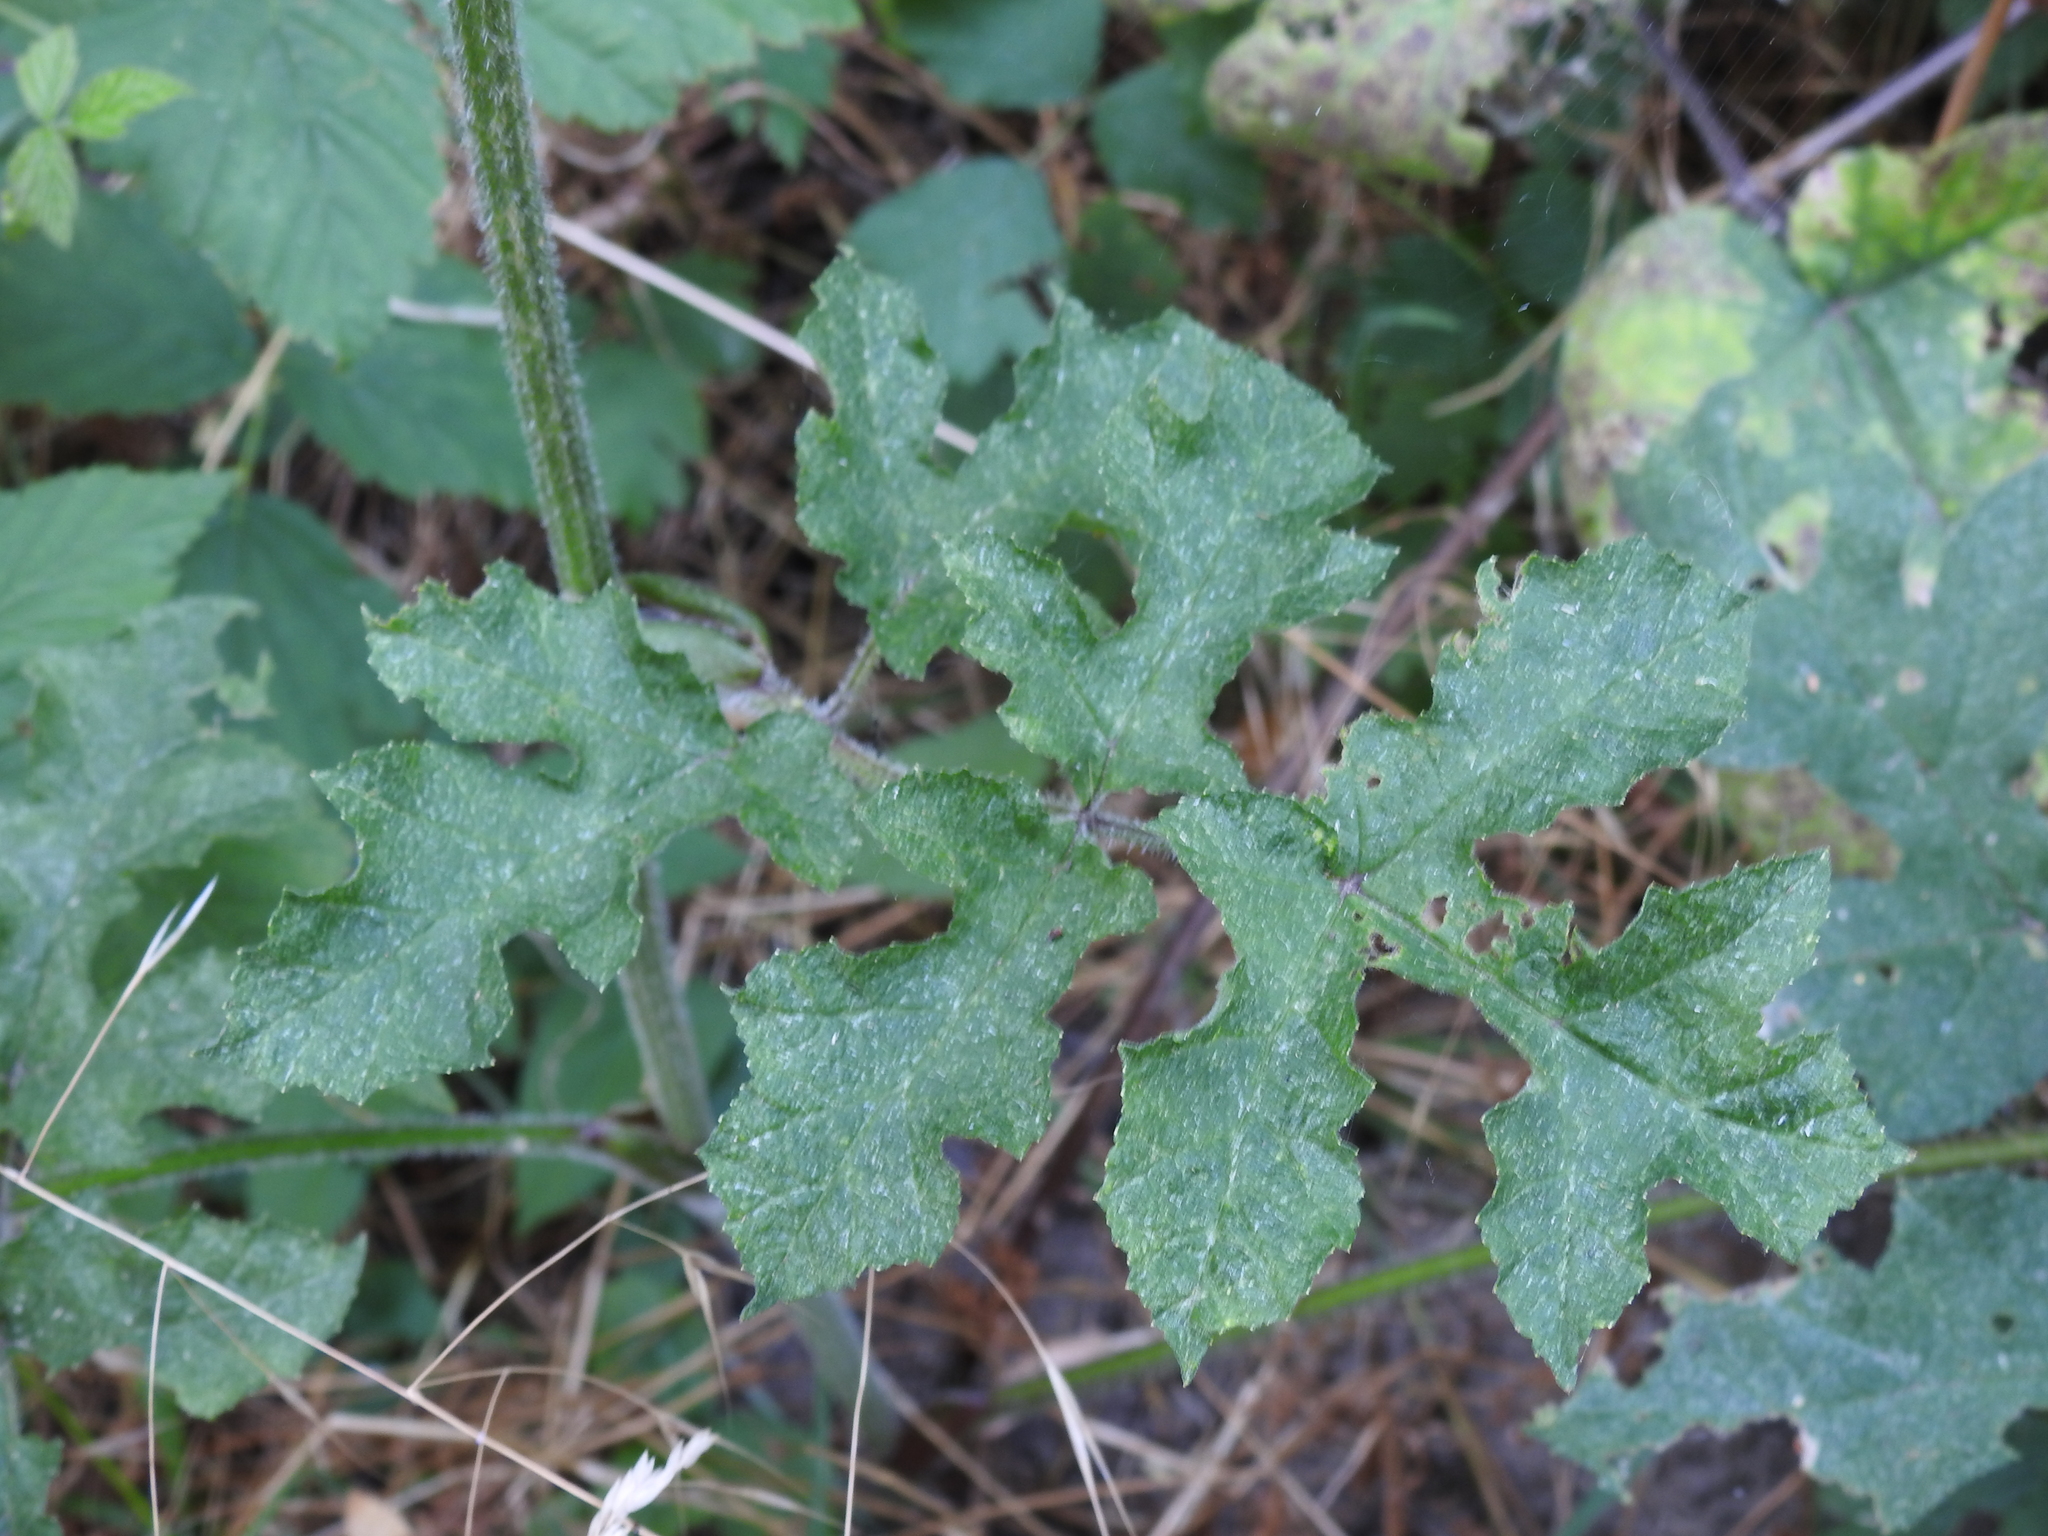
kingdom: Plantae
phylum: Tracheophyta
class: Magnoliopsida
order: Apiales
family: Apiaceae
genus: Heracleum
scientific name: Heracleum sphondylium
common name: Hogweed
